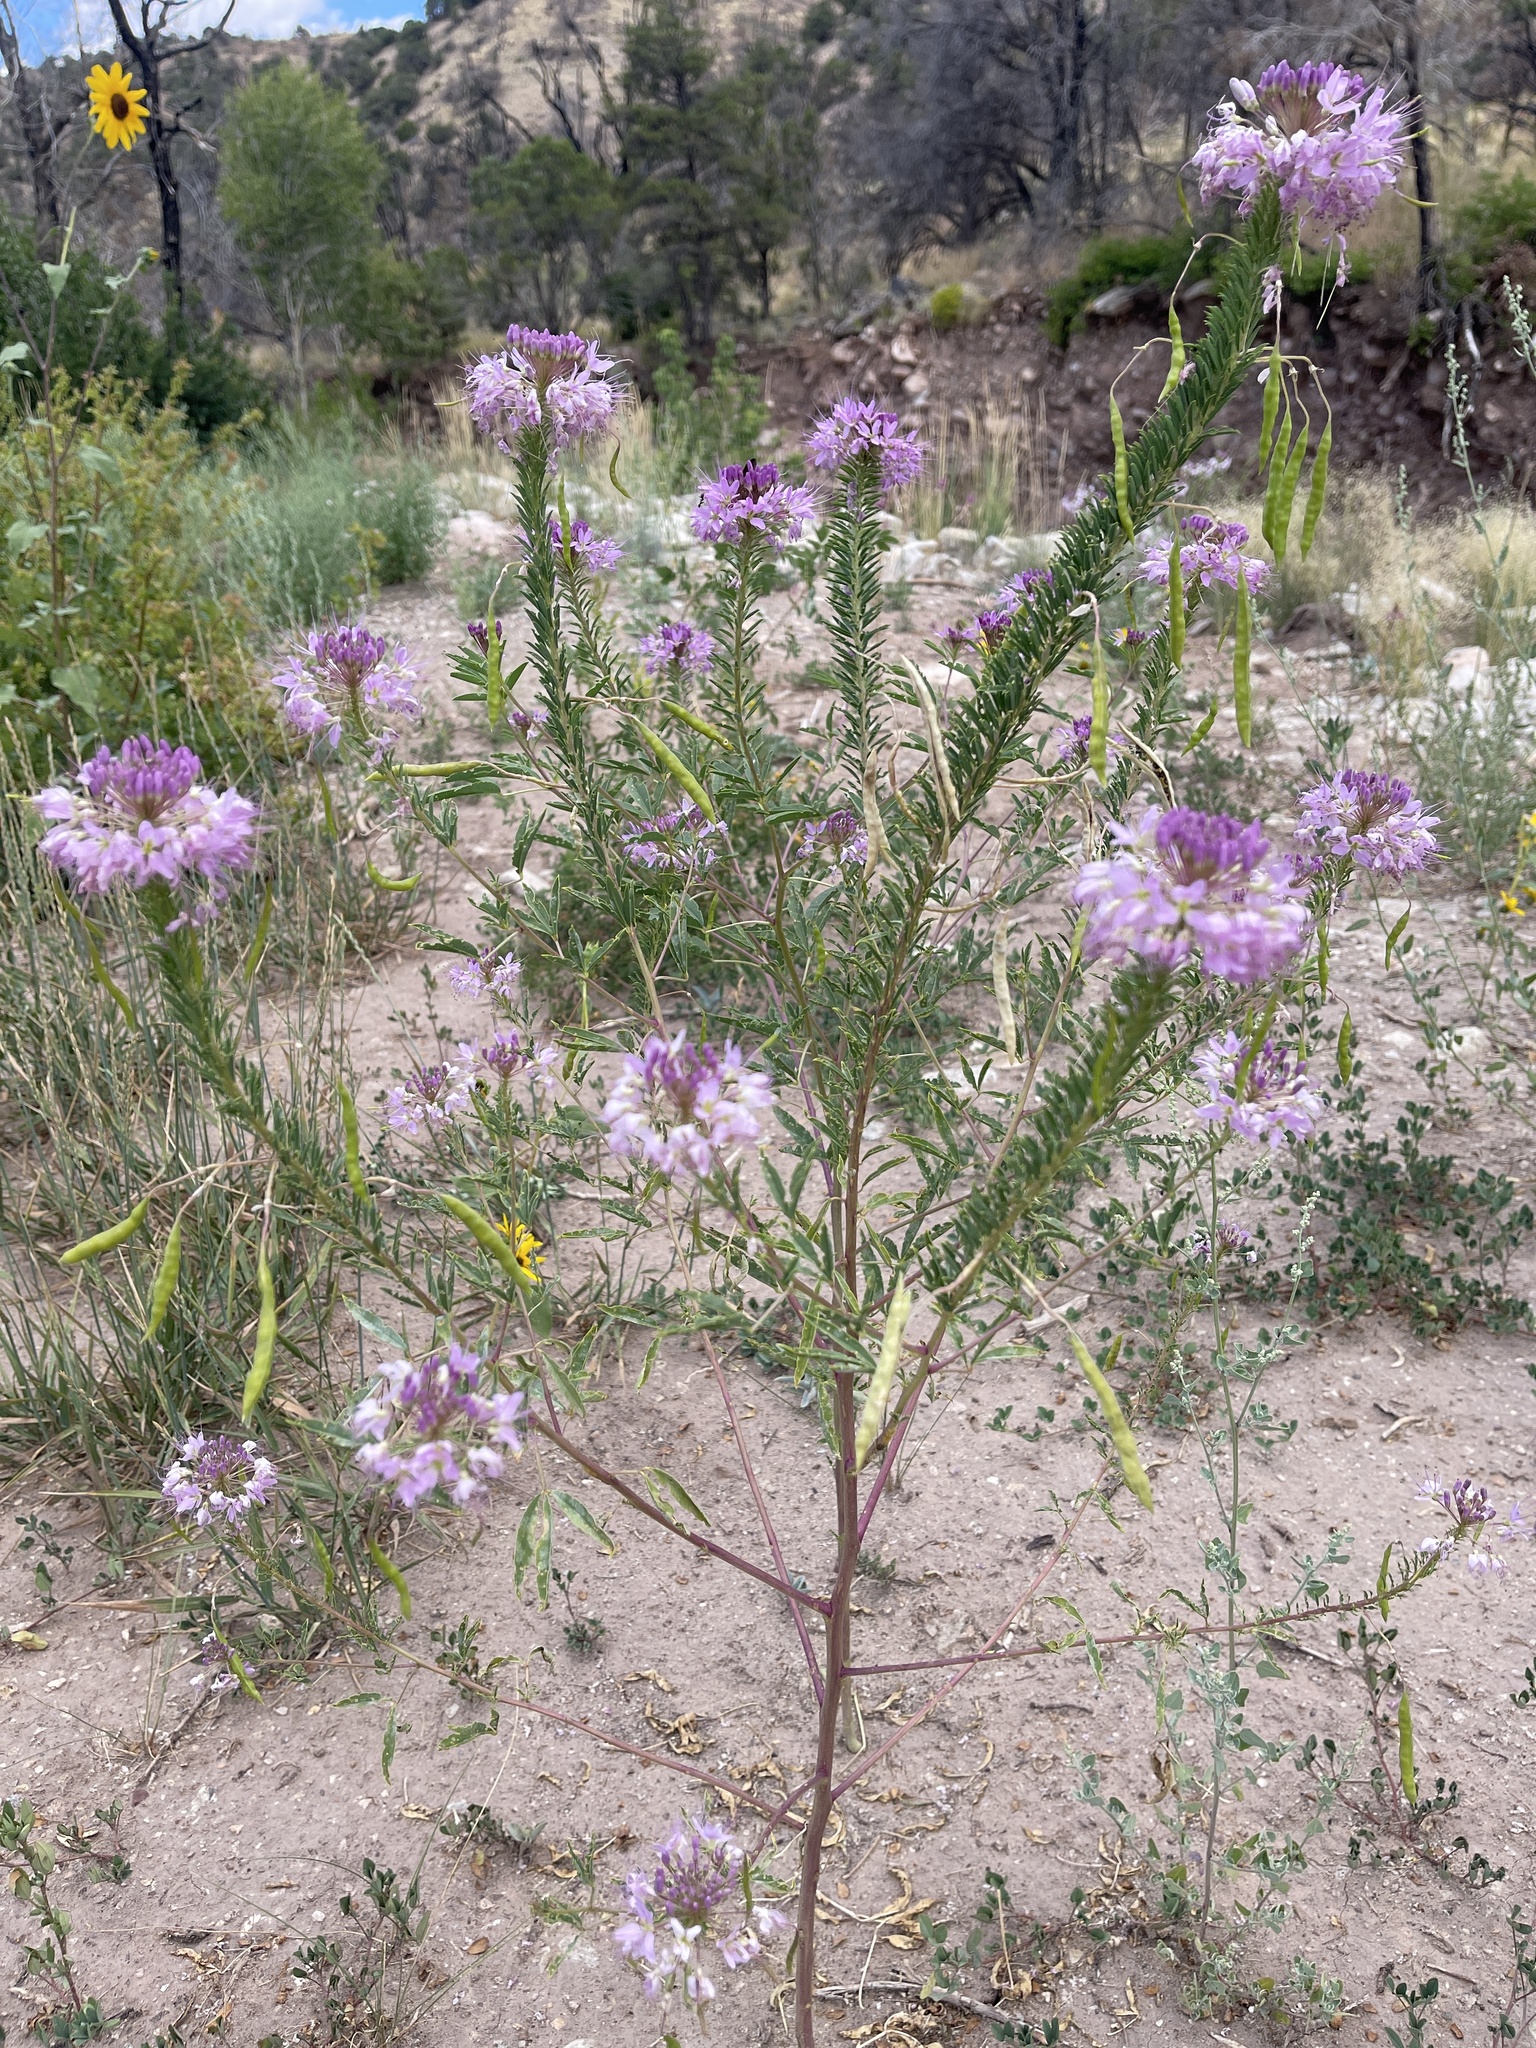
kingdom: Plantae
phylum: Tracheophyta
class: Magnoliopsida
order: Brassicales
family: Cleomaceae
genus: Cleomella
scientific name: Cleomella serrulata
